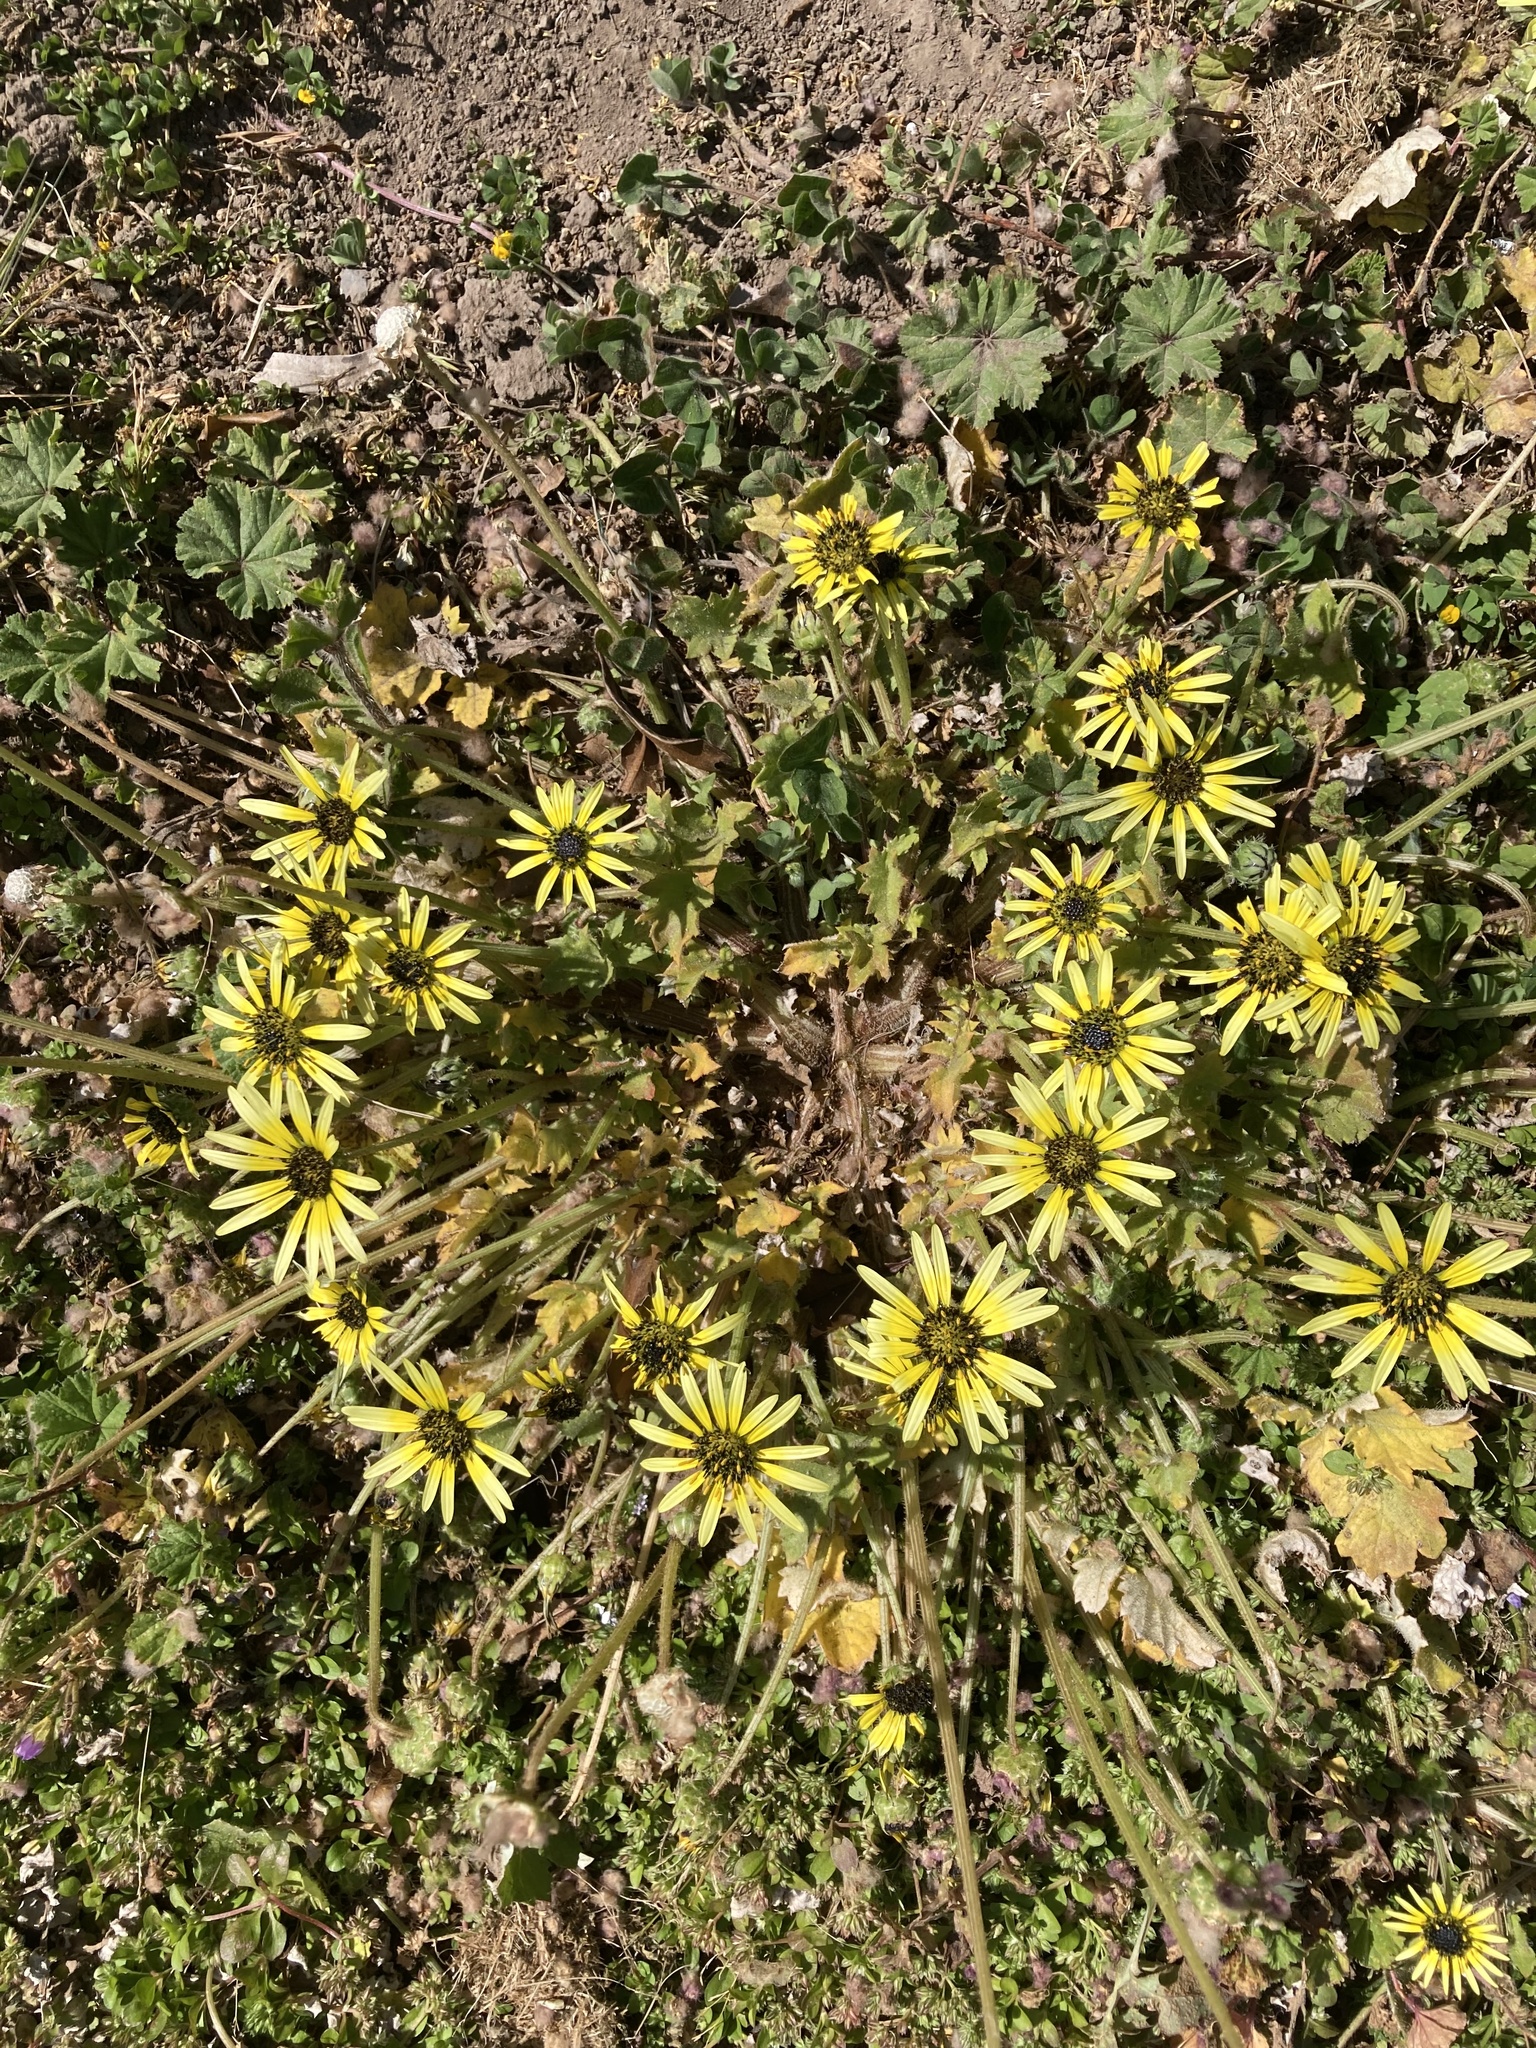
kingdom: Plantae
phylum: Tracheophyta
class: Magnoliopsida
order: Asterales
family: Asteraceae
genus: Arctotheca
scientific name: Arctotheca calendula
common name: Capeweed
